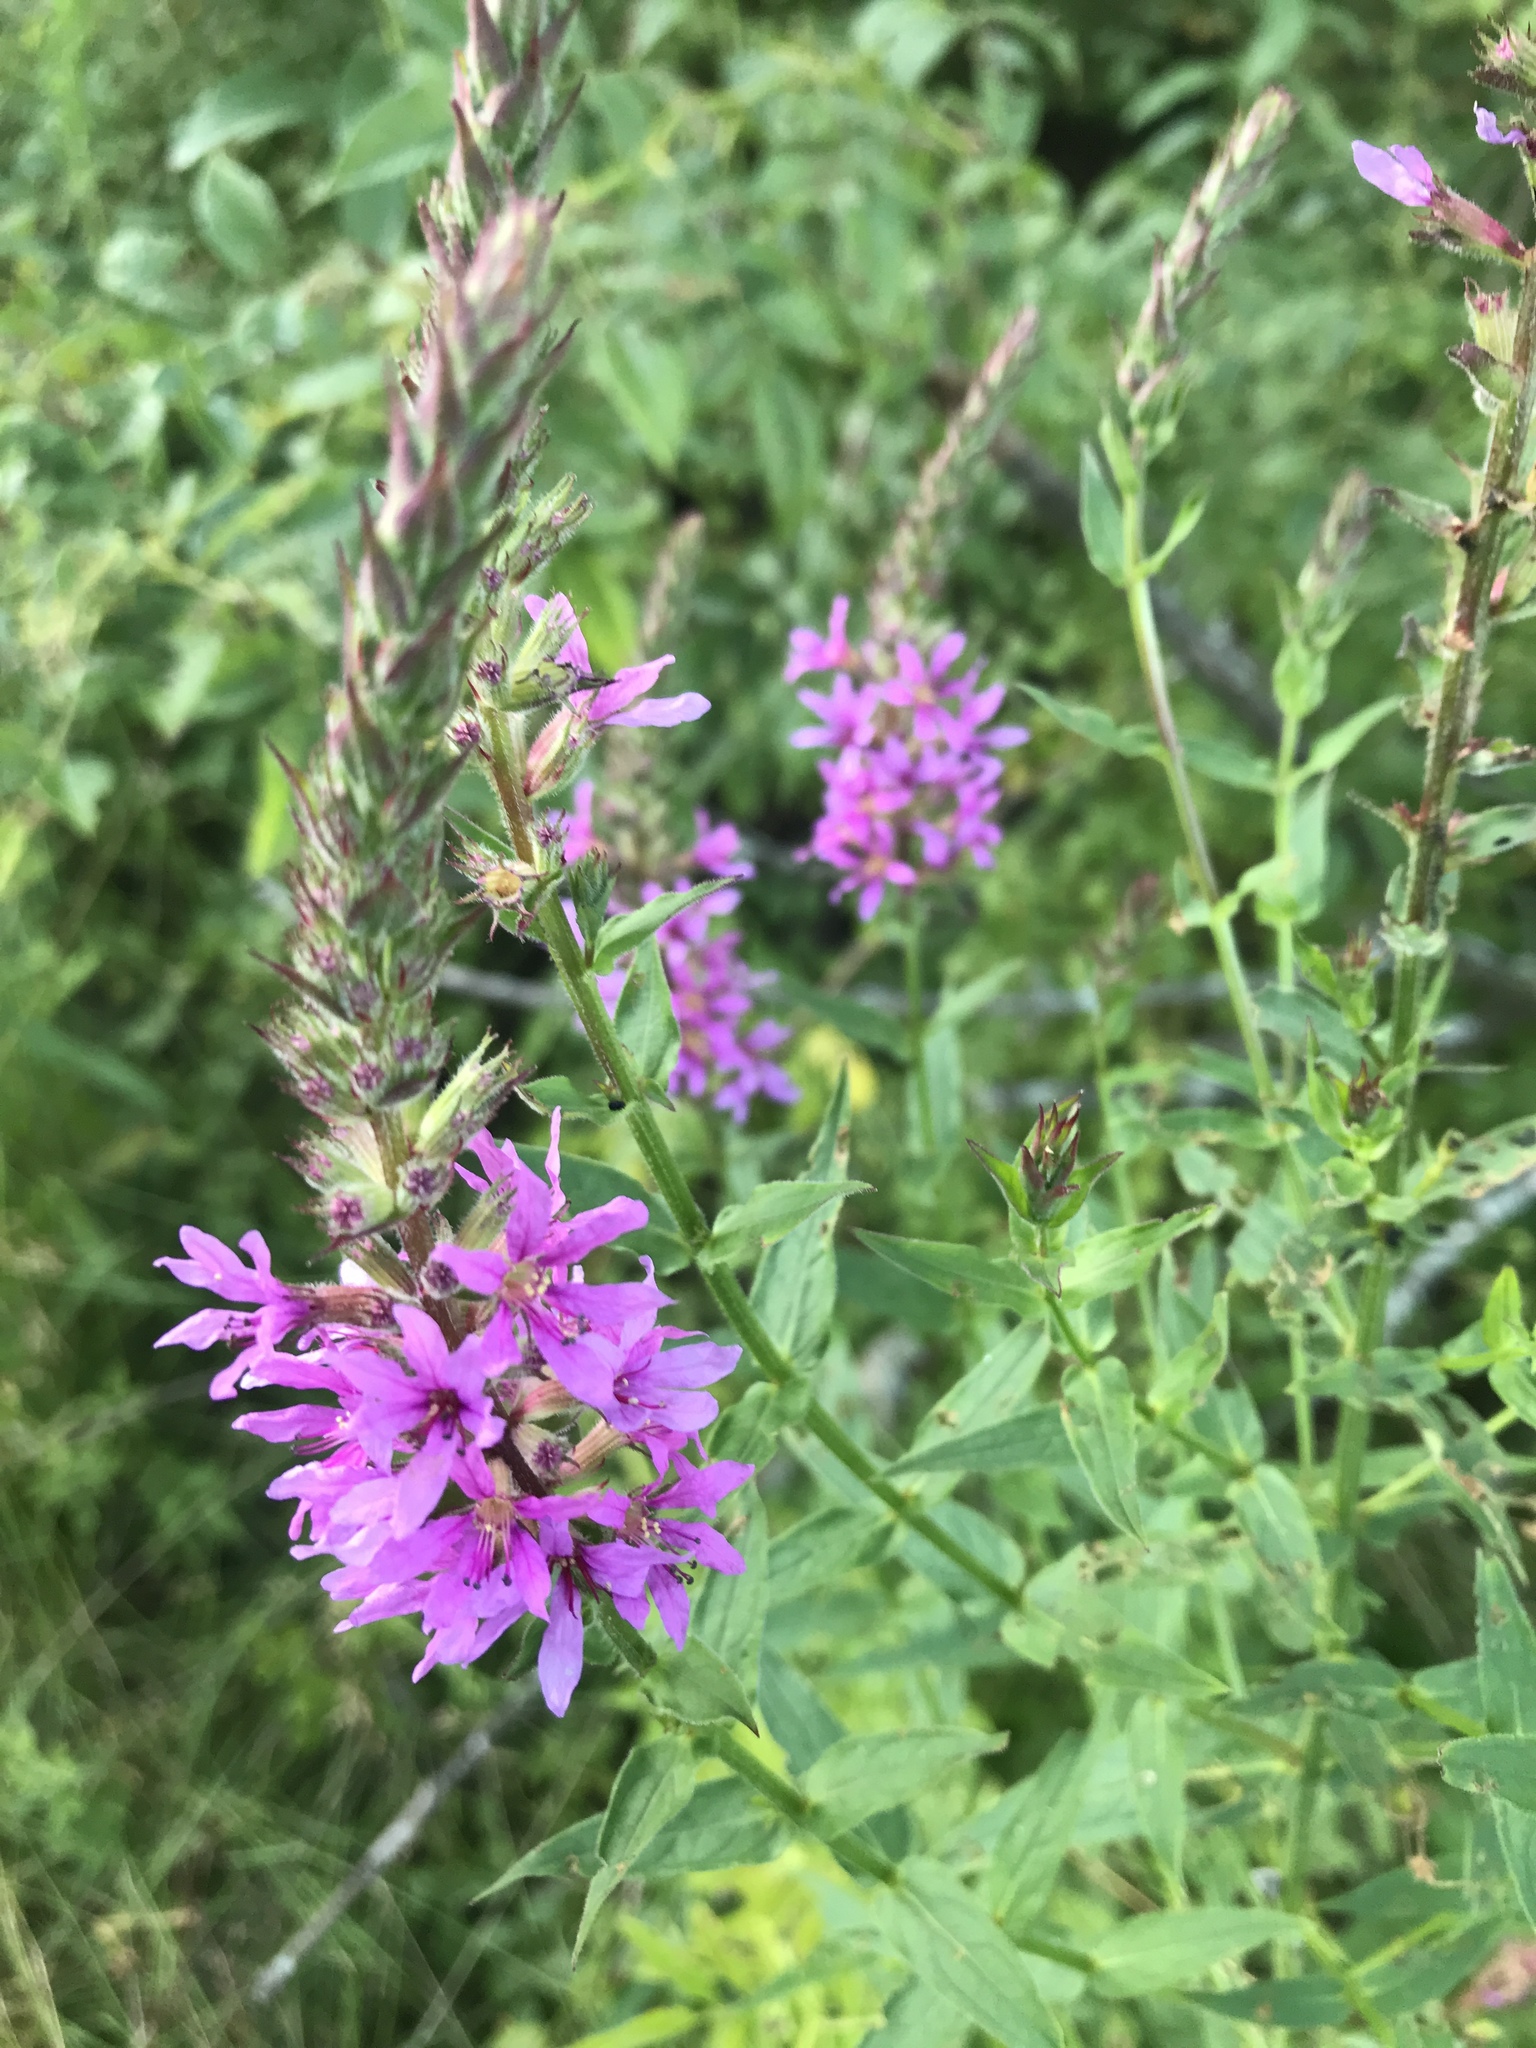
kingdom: Plantae
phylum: Tracheophyta
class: Magnoliopsida
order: Myrtales
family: Lythraceae
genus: Lythrum
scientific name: Lythrum salicaria
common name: Purple loosestrife
